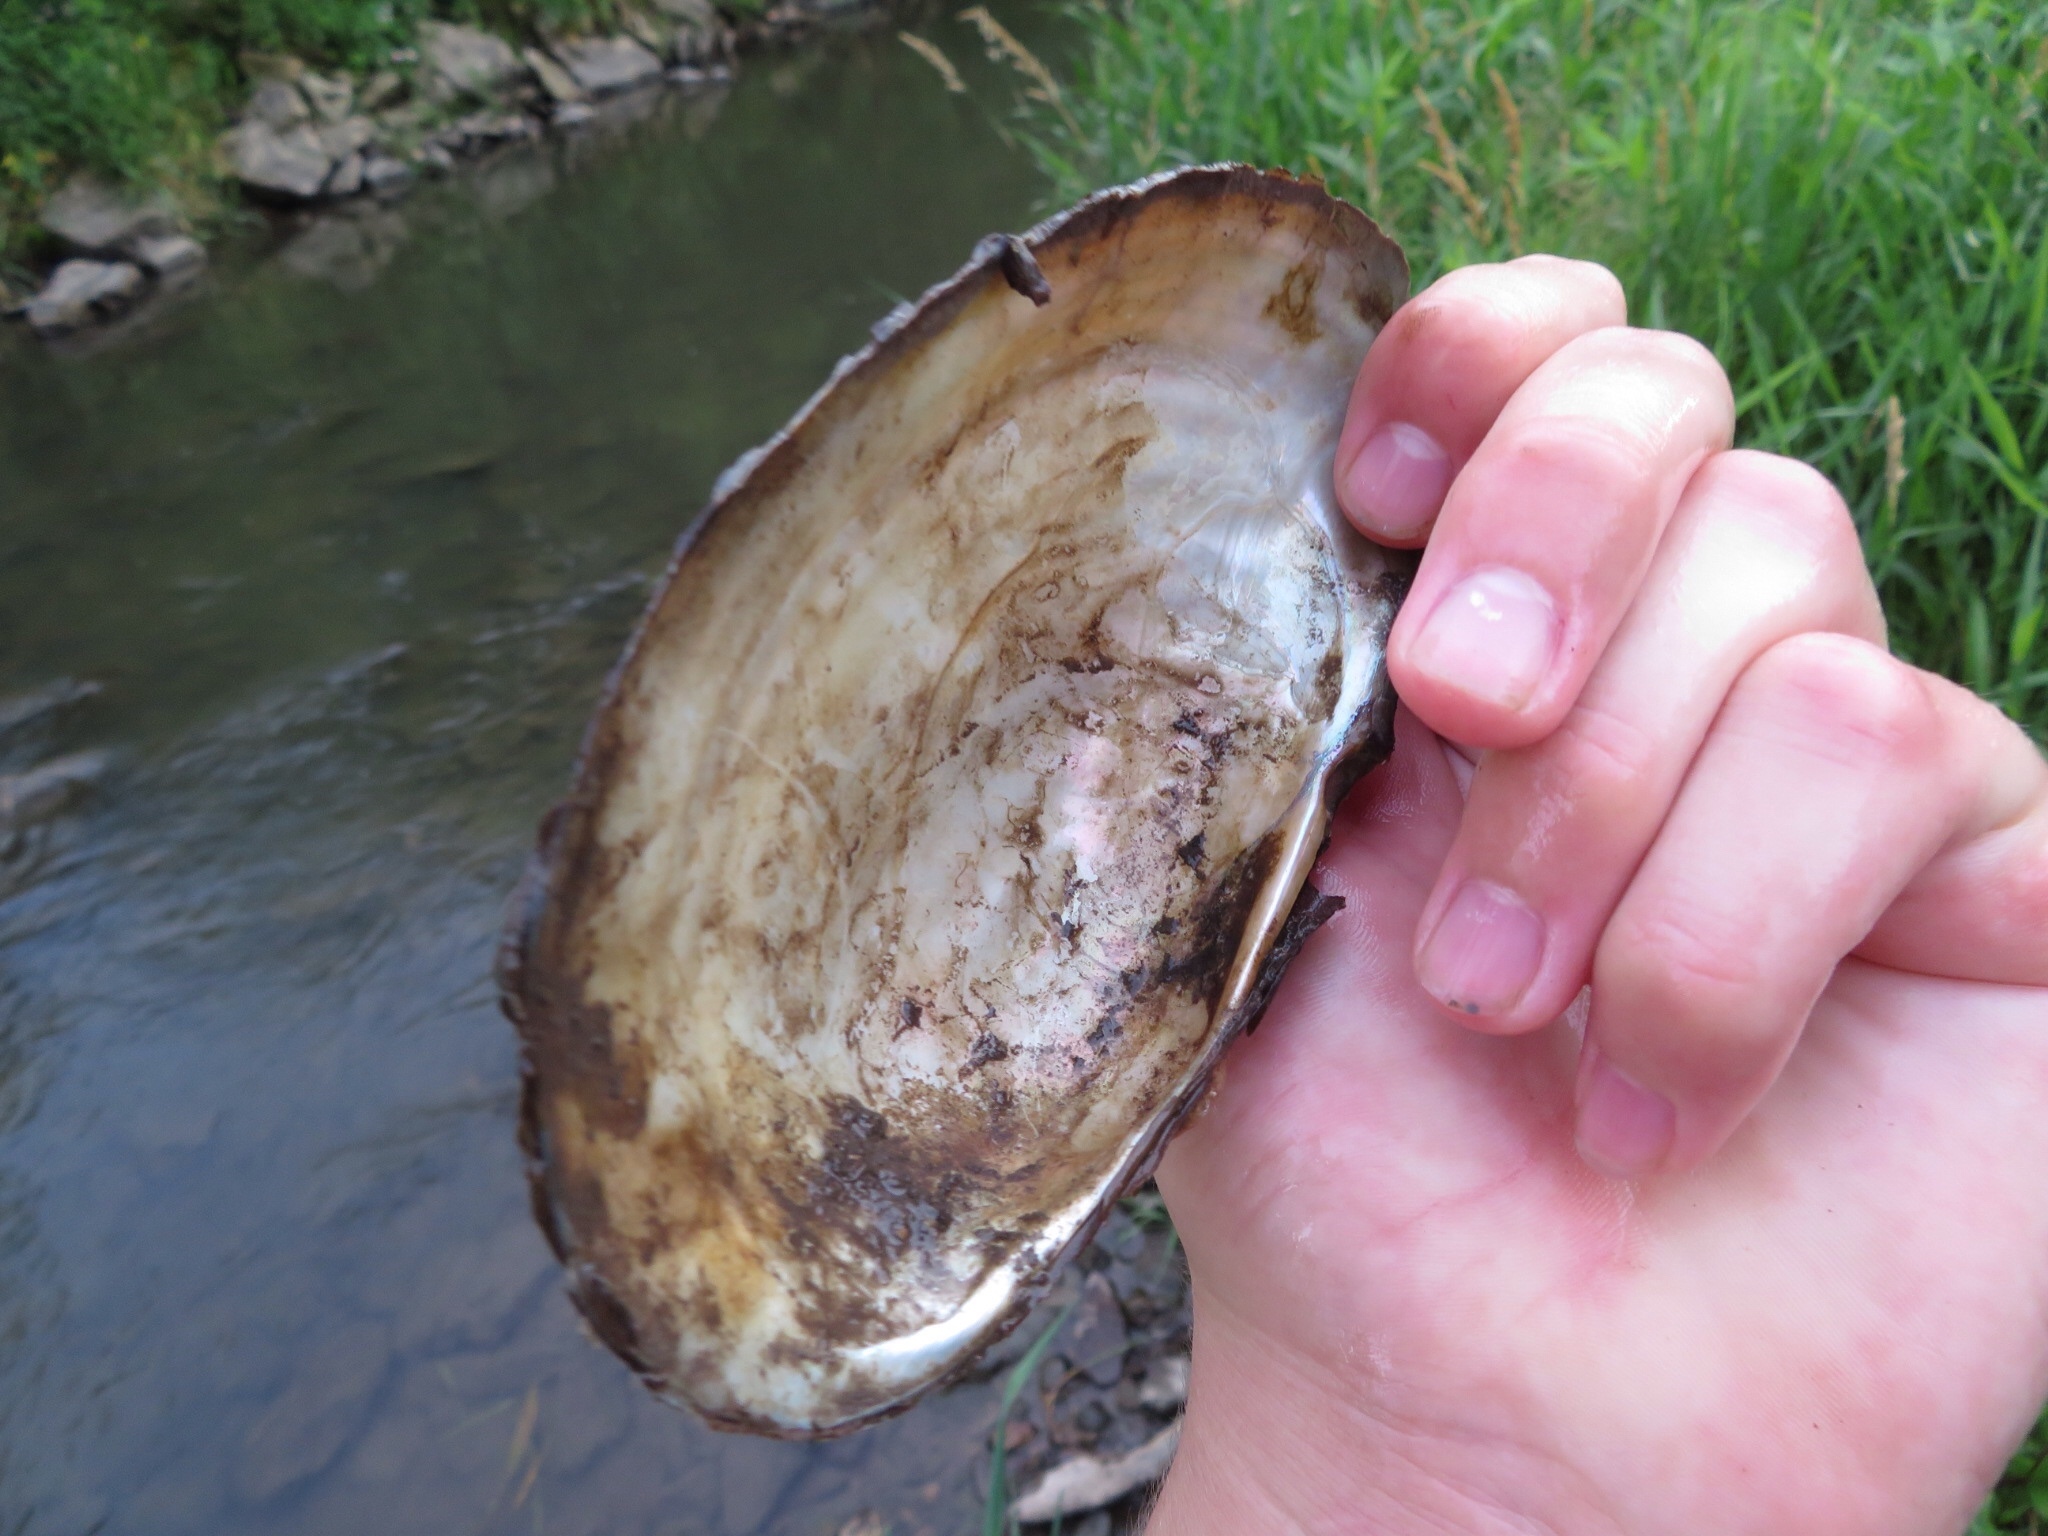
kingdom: Animalia
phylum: Mollusca
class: Bivalvia
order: Unionida
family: Unionidae
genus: Pyganodon
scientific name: Pyganodon grandis
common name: Giant floater
